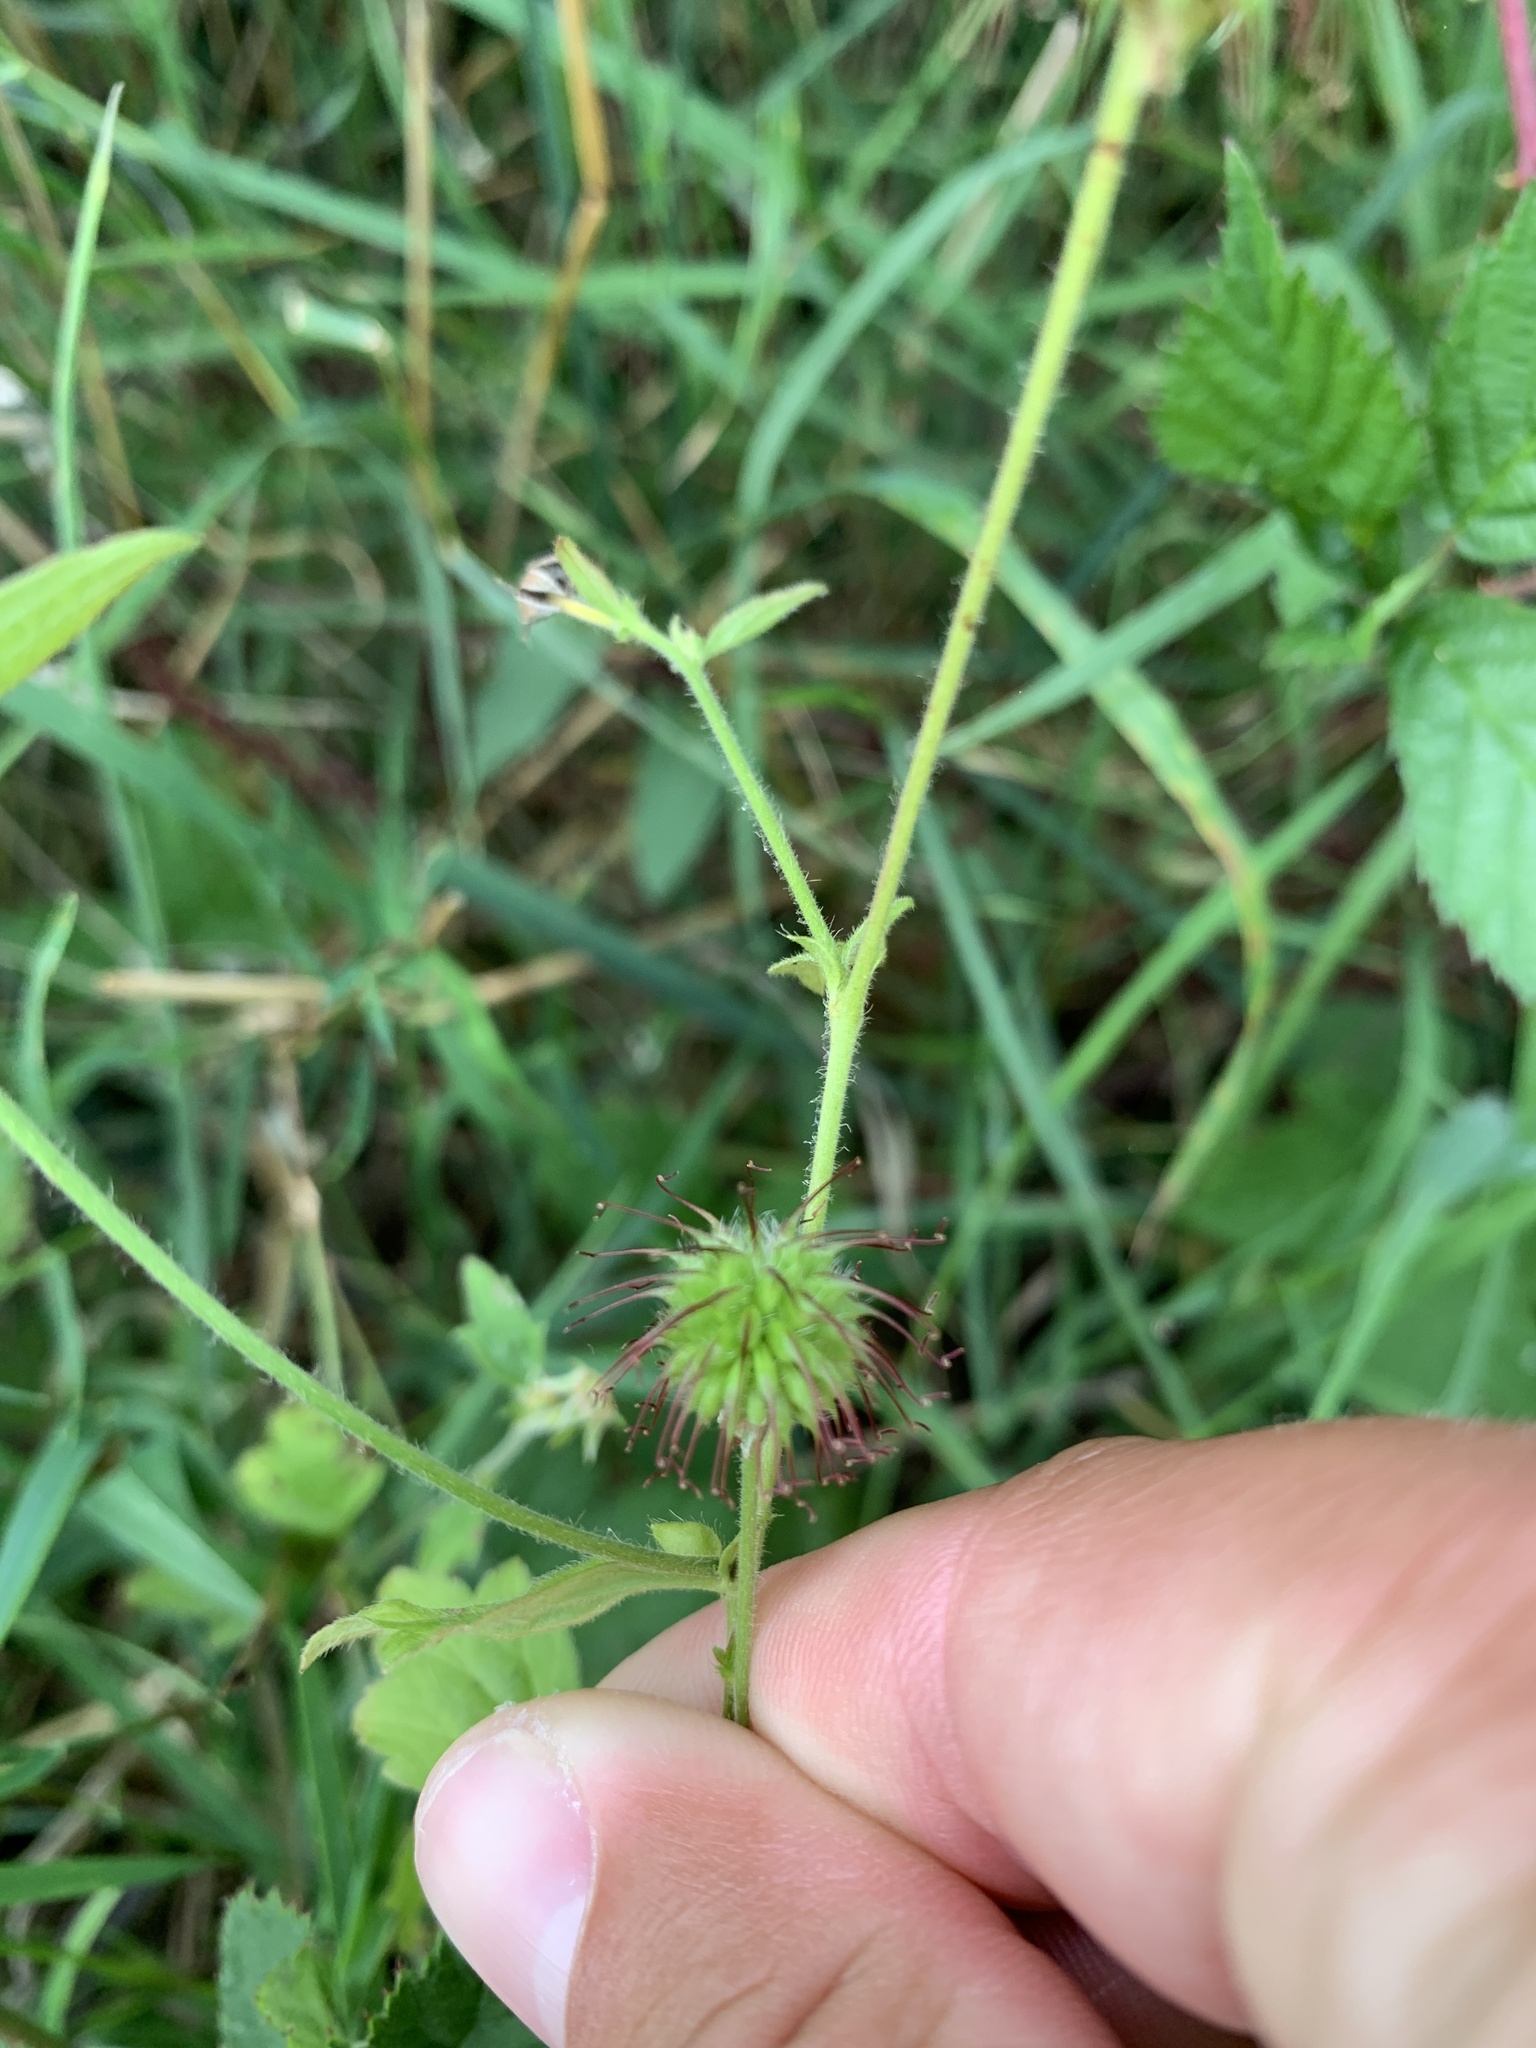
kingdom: Plantae
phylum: Tracheophyta
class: Magnoliopsida
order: Rosales
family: Rosaceae
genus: Geum
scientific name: Geum urbanum
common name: Wood avens
